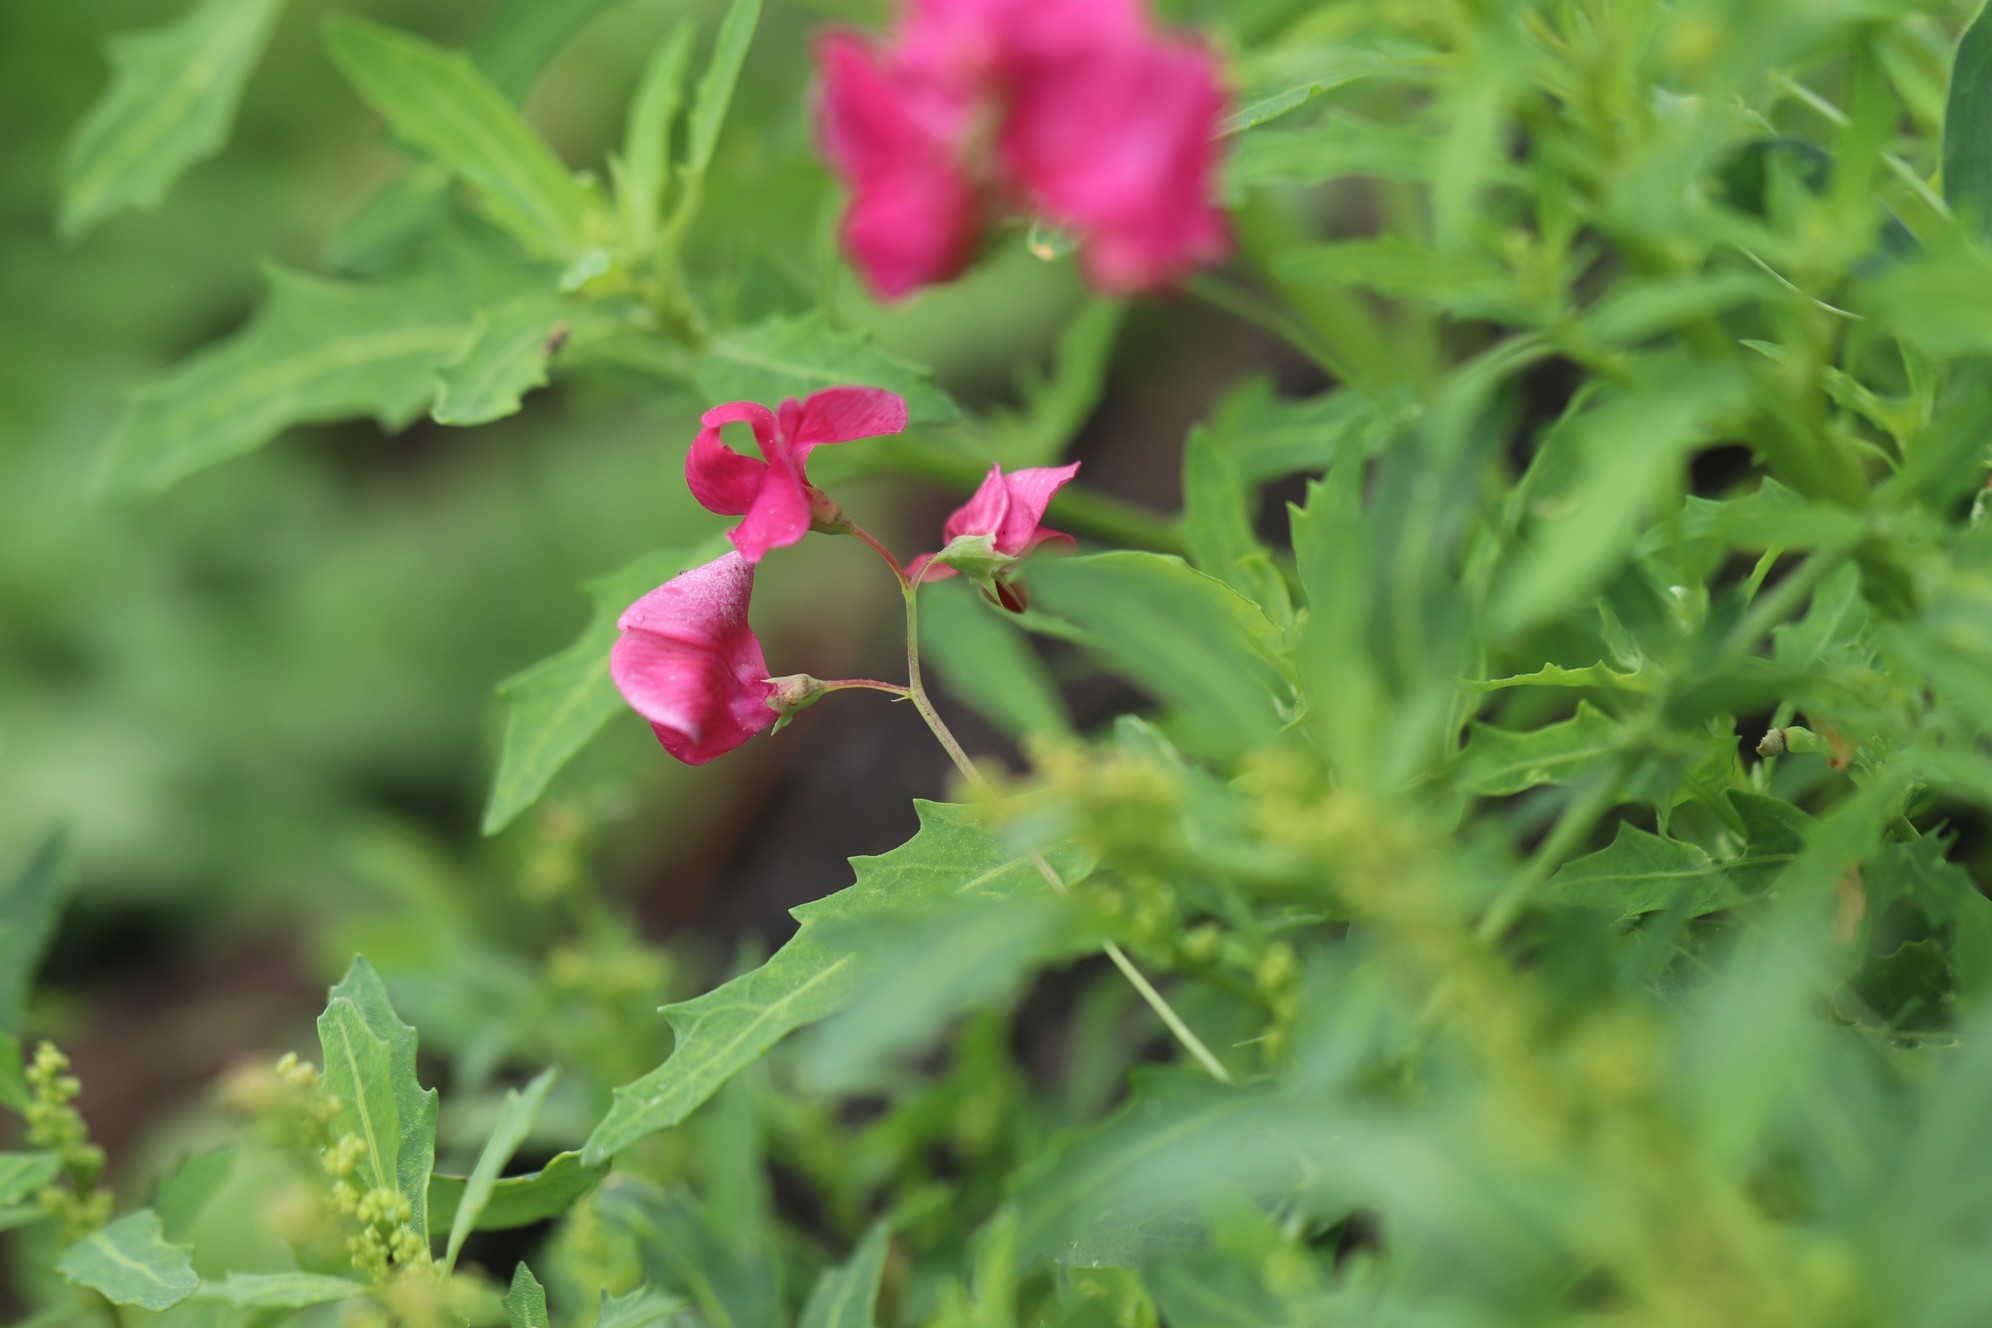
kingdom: Plantae
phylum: Tracheophyta
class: Magnoliopsida
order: Fabales
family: Fabaceae
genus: Lathyrus
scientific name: Lathyrus tuberosus
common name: Tuberous pea
